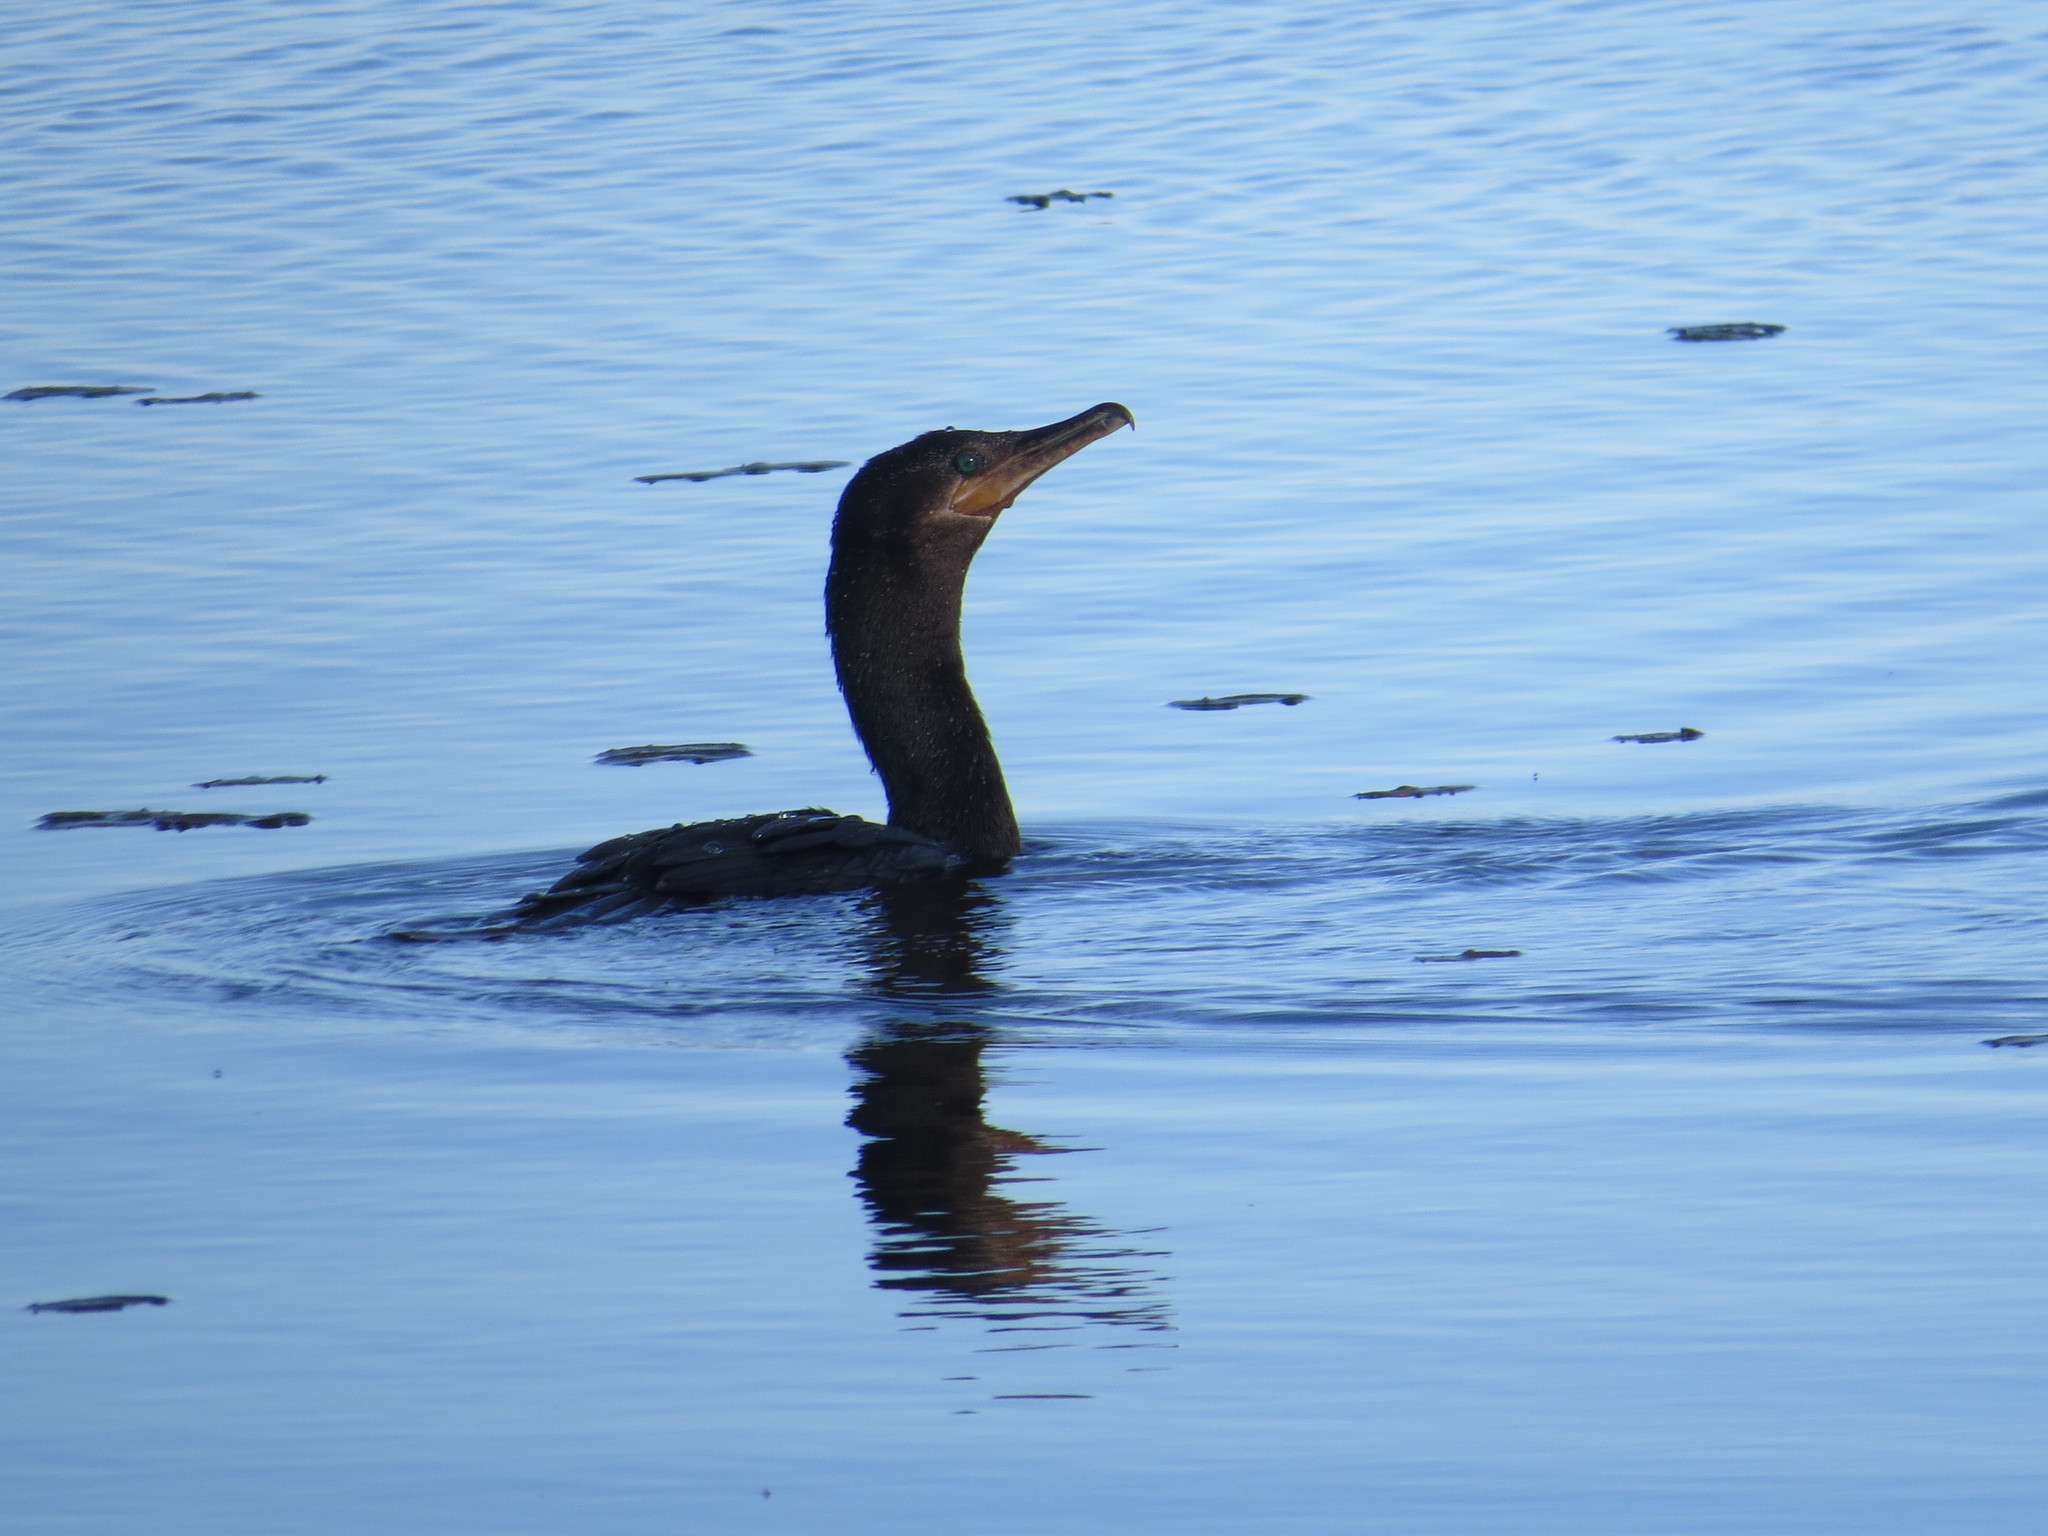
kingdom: Animalia
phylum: Chordata
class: Aves
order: Suliformes
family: Phalacrocoracidae
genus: Phalacrocorax
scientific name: Phalacrocorax brasilianus
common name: Neotropic cormorant
